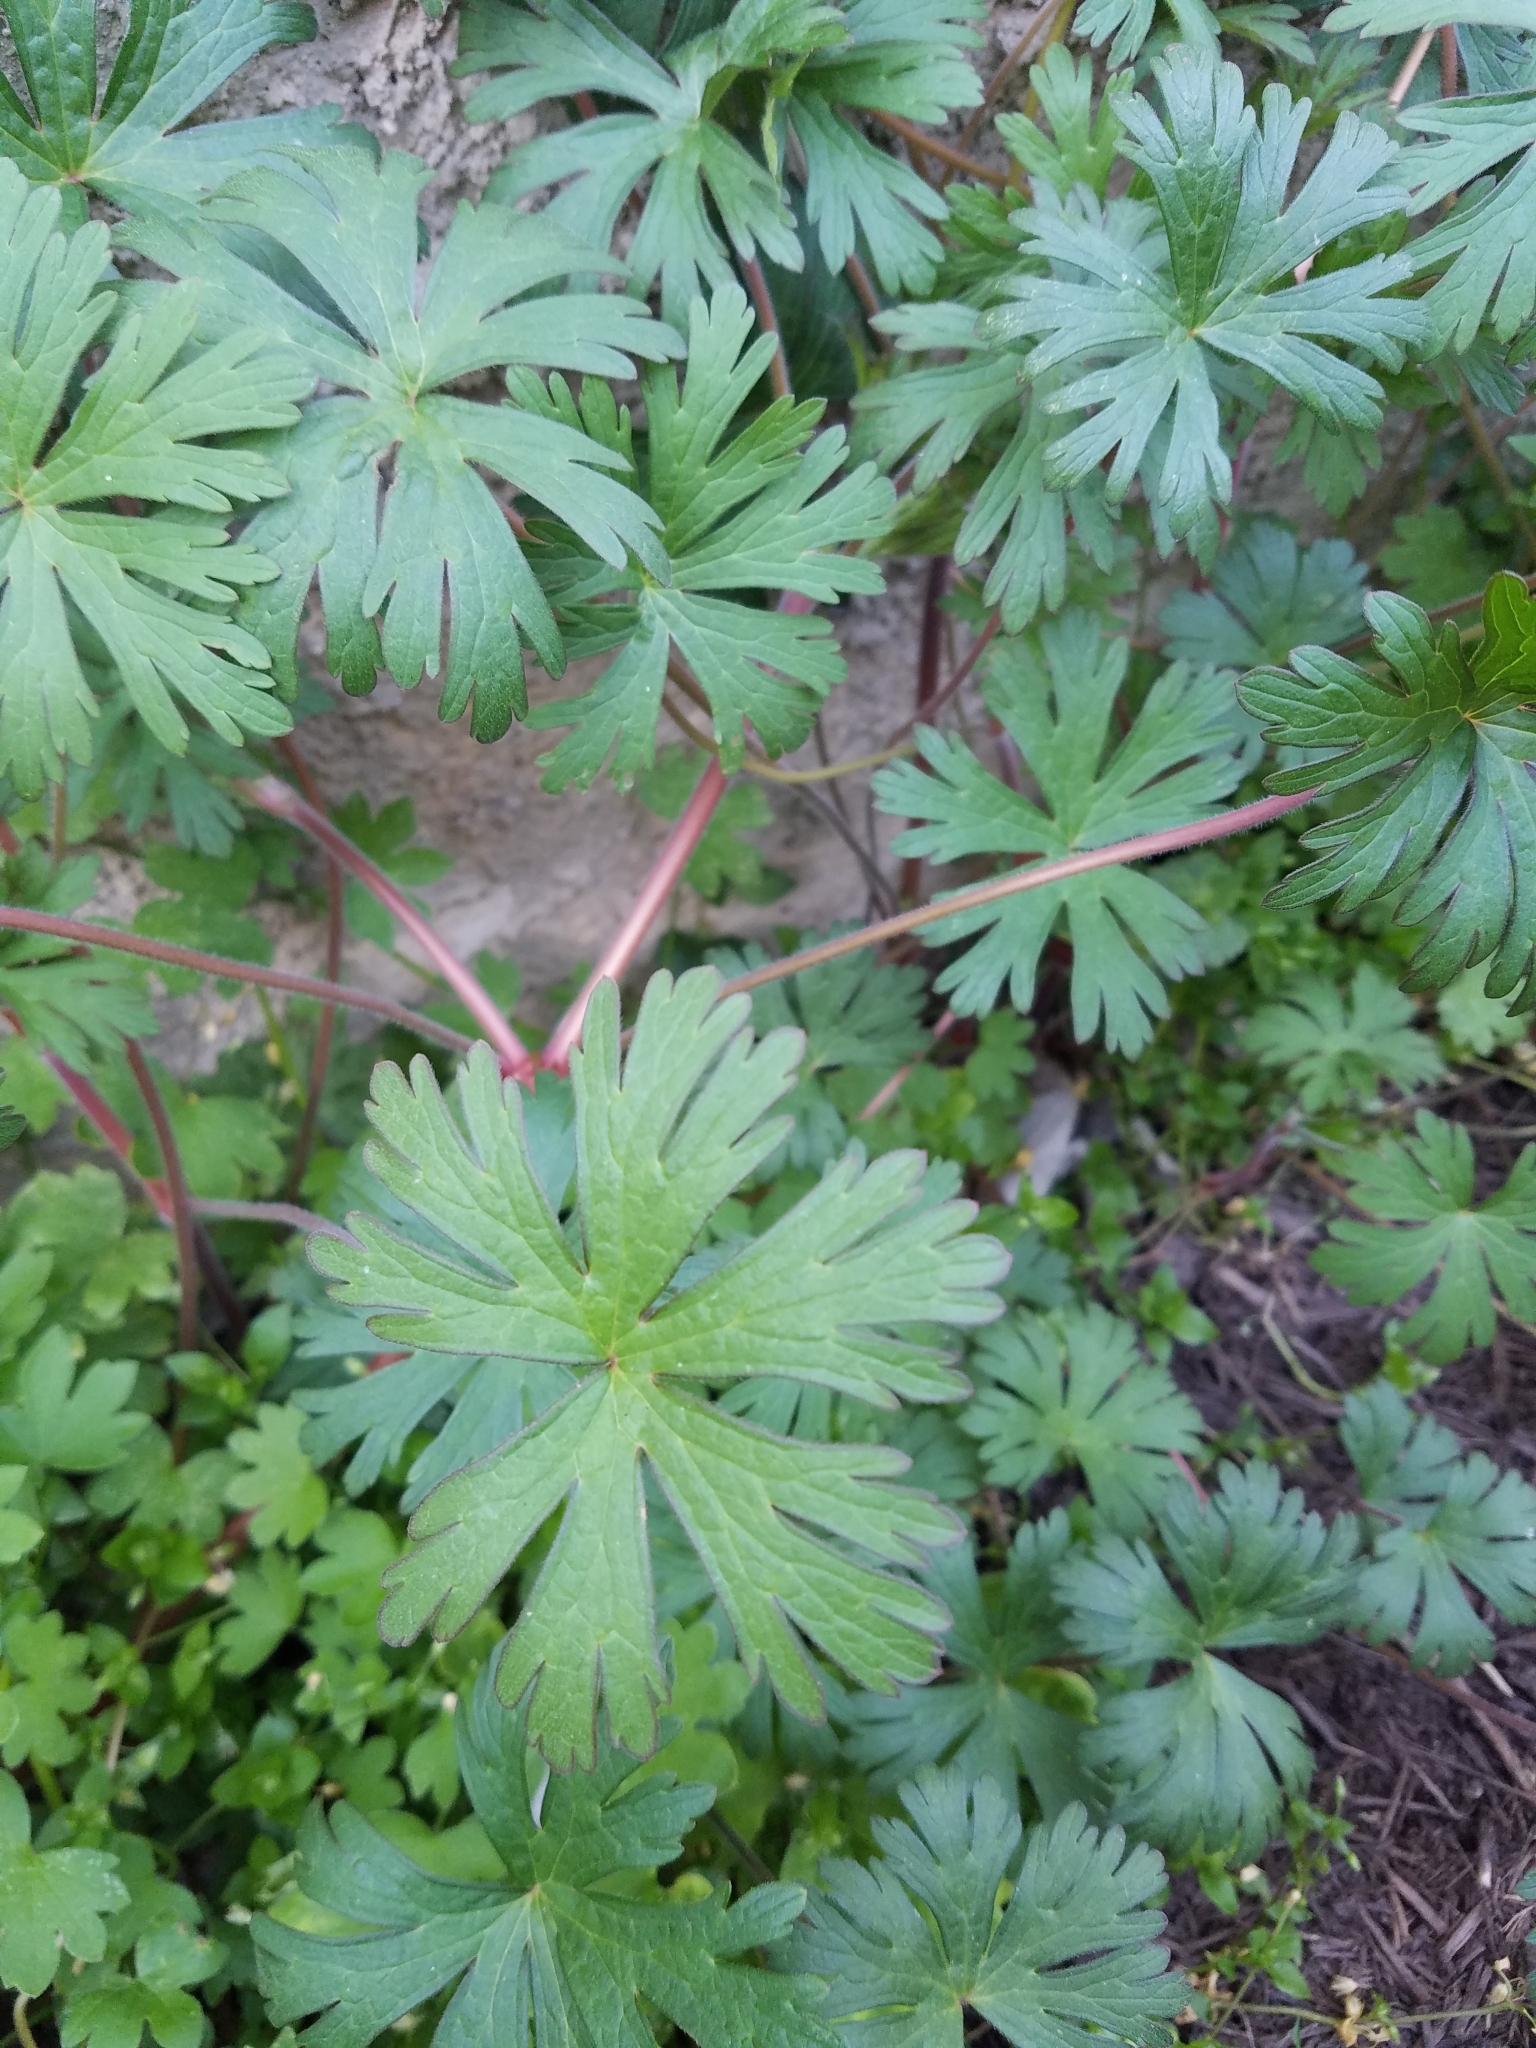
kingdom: Plantae
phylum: Tracheophyta
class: Magnoliopsida
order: Geraniales
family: Geraniaceae
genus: Geranium
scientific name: Geranium carolinianum
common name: Carolina crane's-bill
